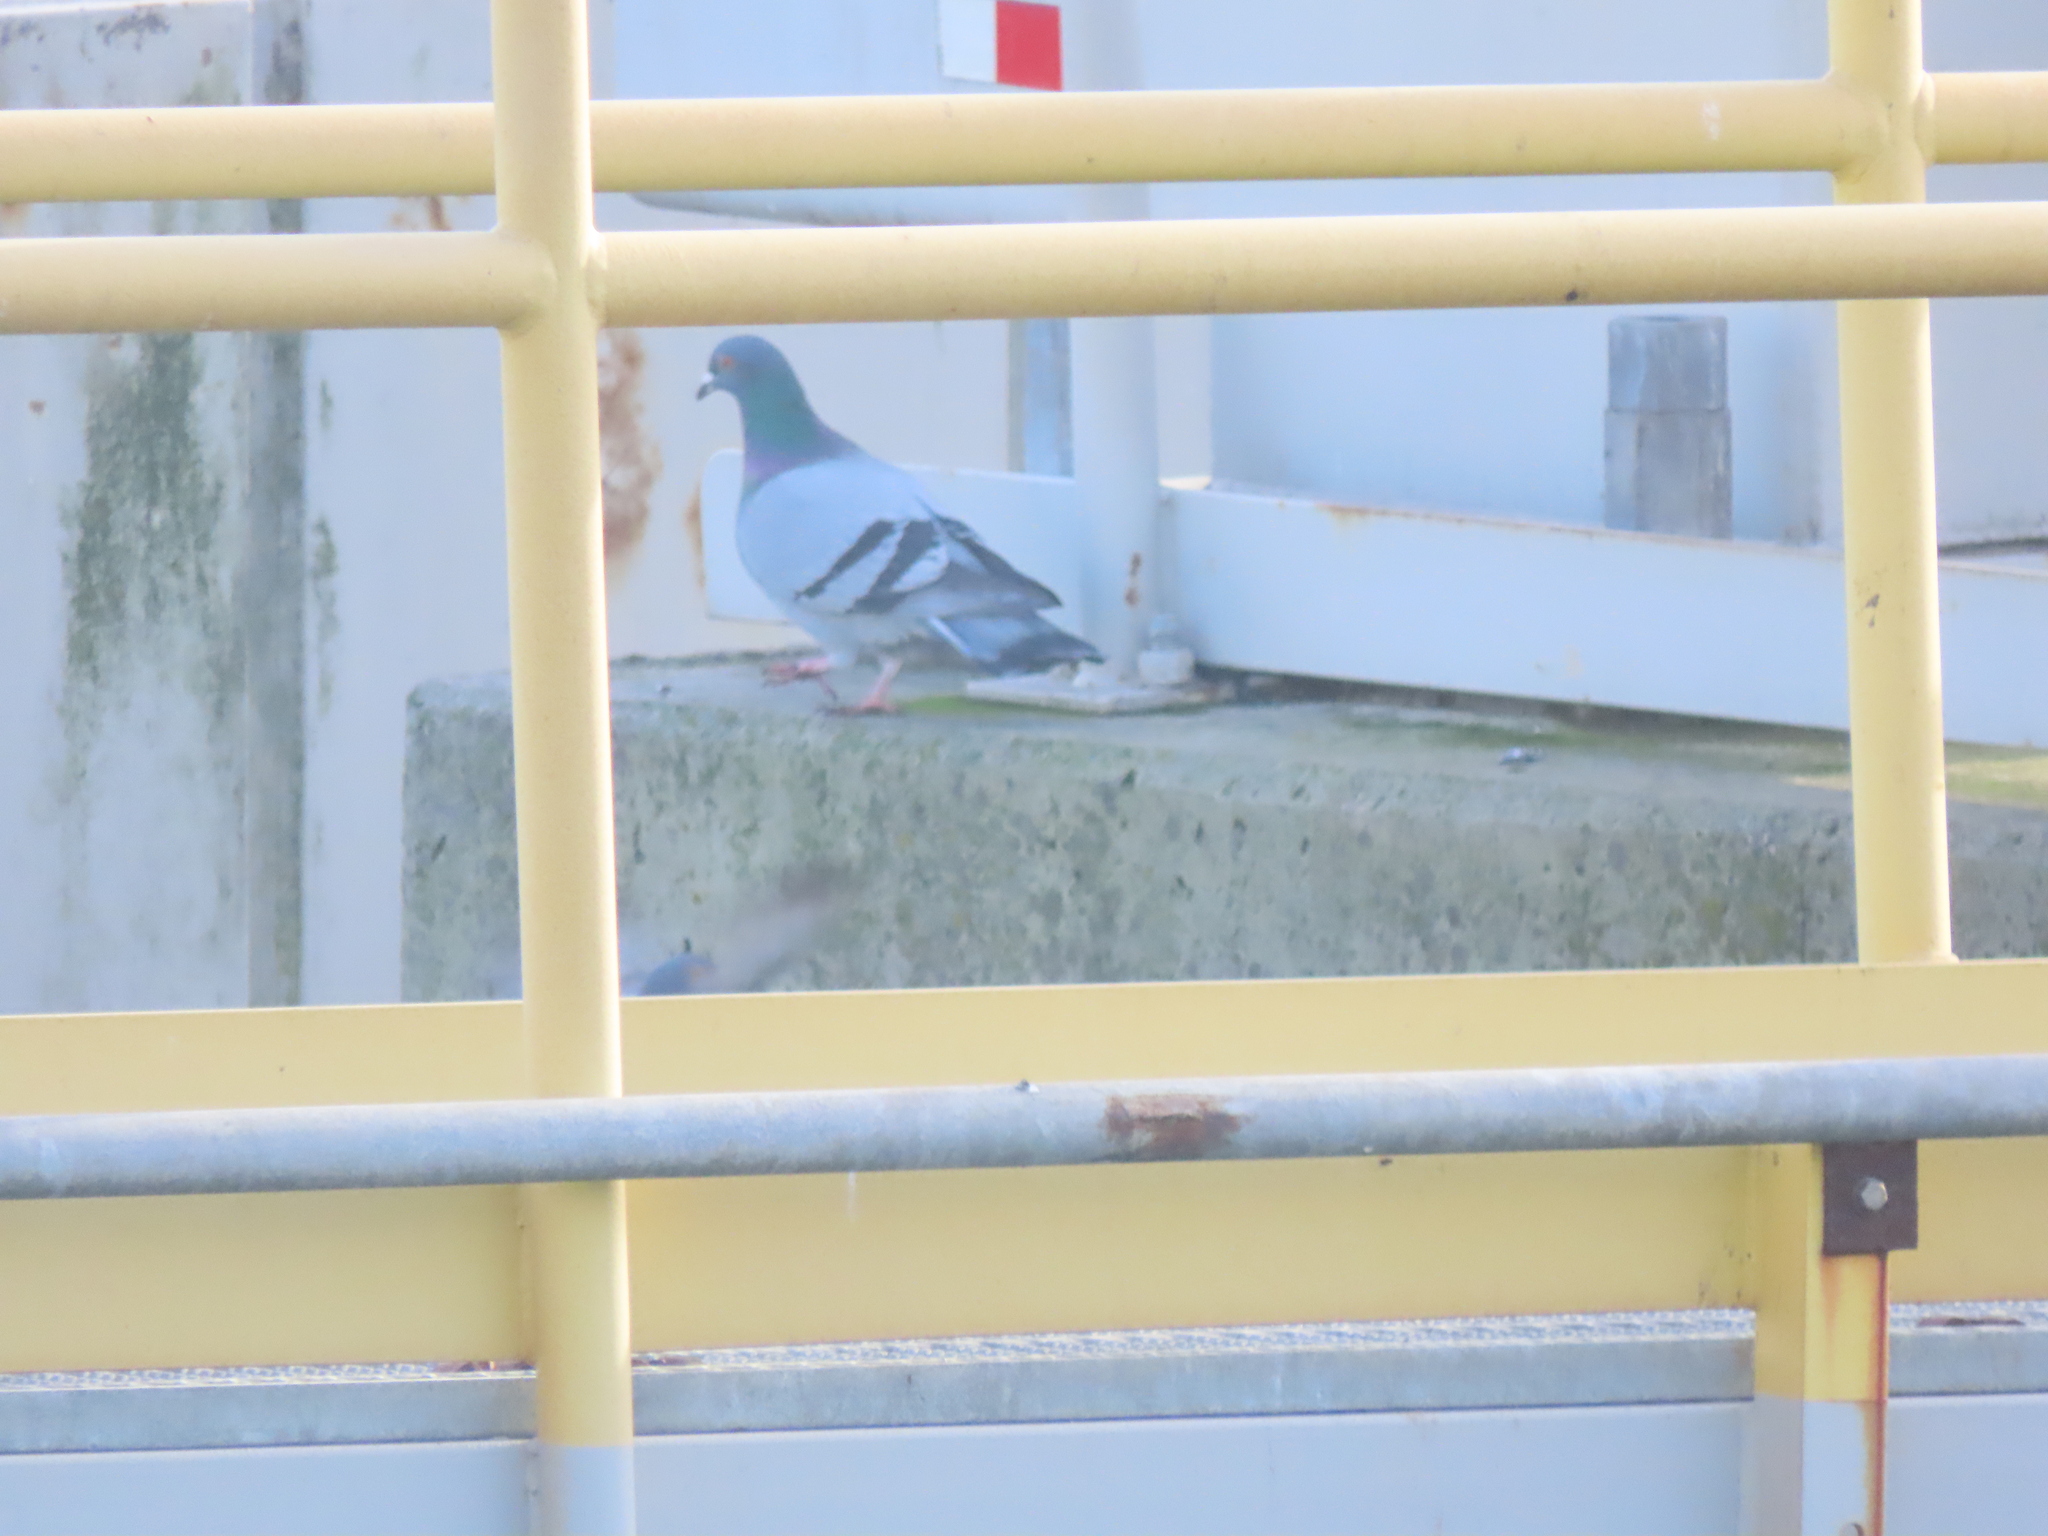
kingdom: Animalia
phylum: Chordata
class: Aves
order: Columbiformes
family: Columbidae
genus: Columba
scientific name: Columba livia
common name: Rock pigeon
